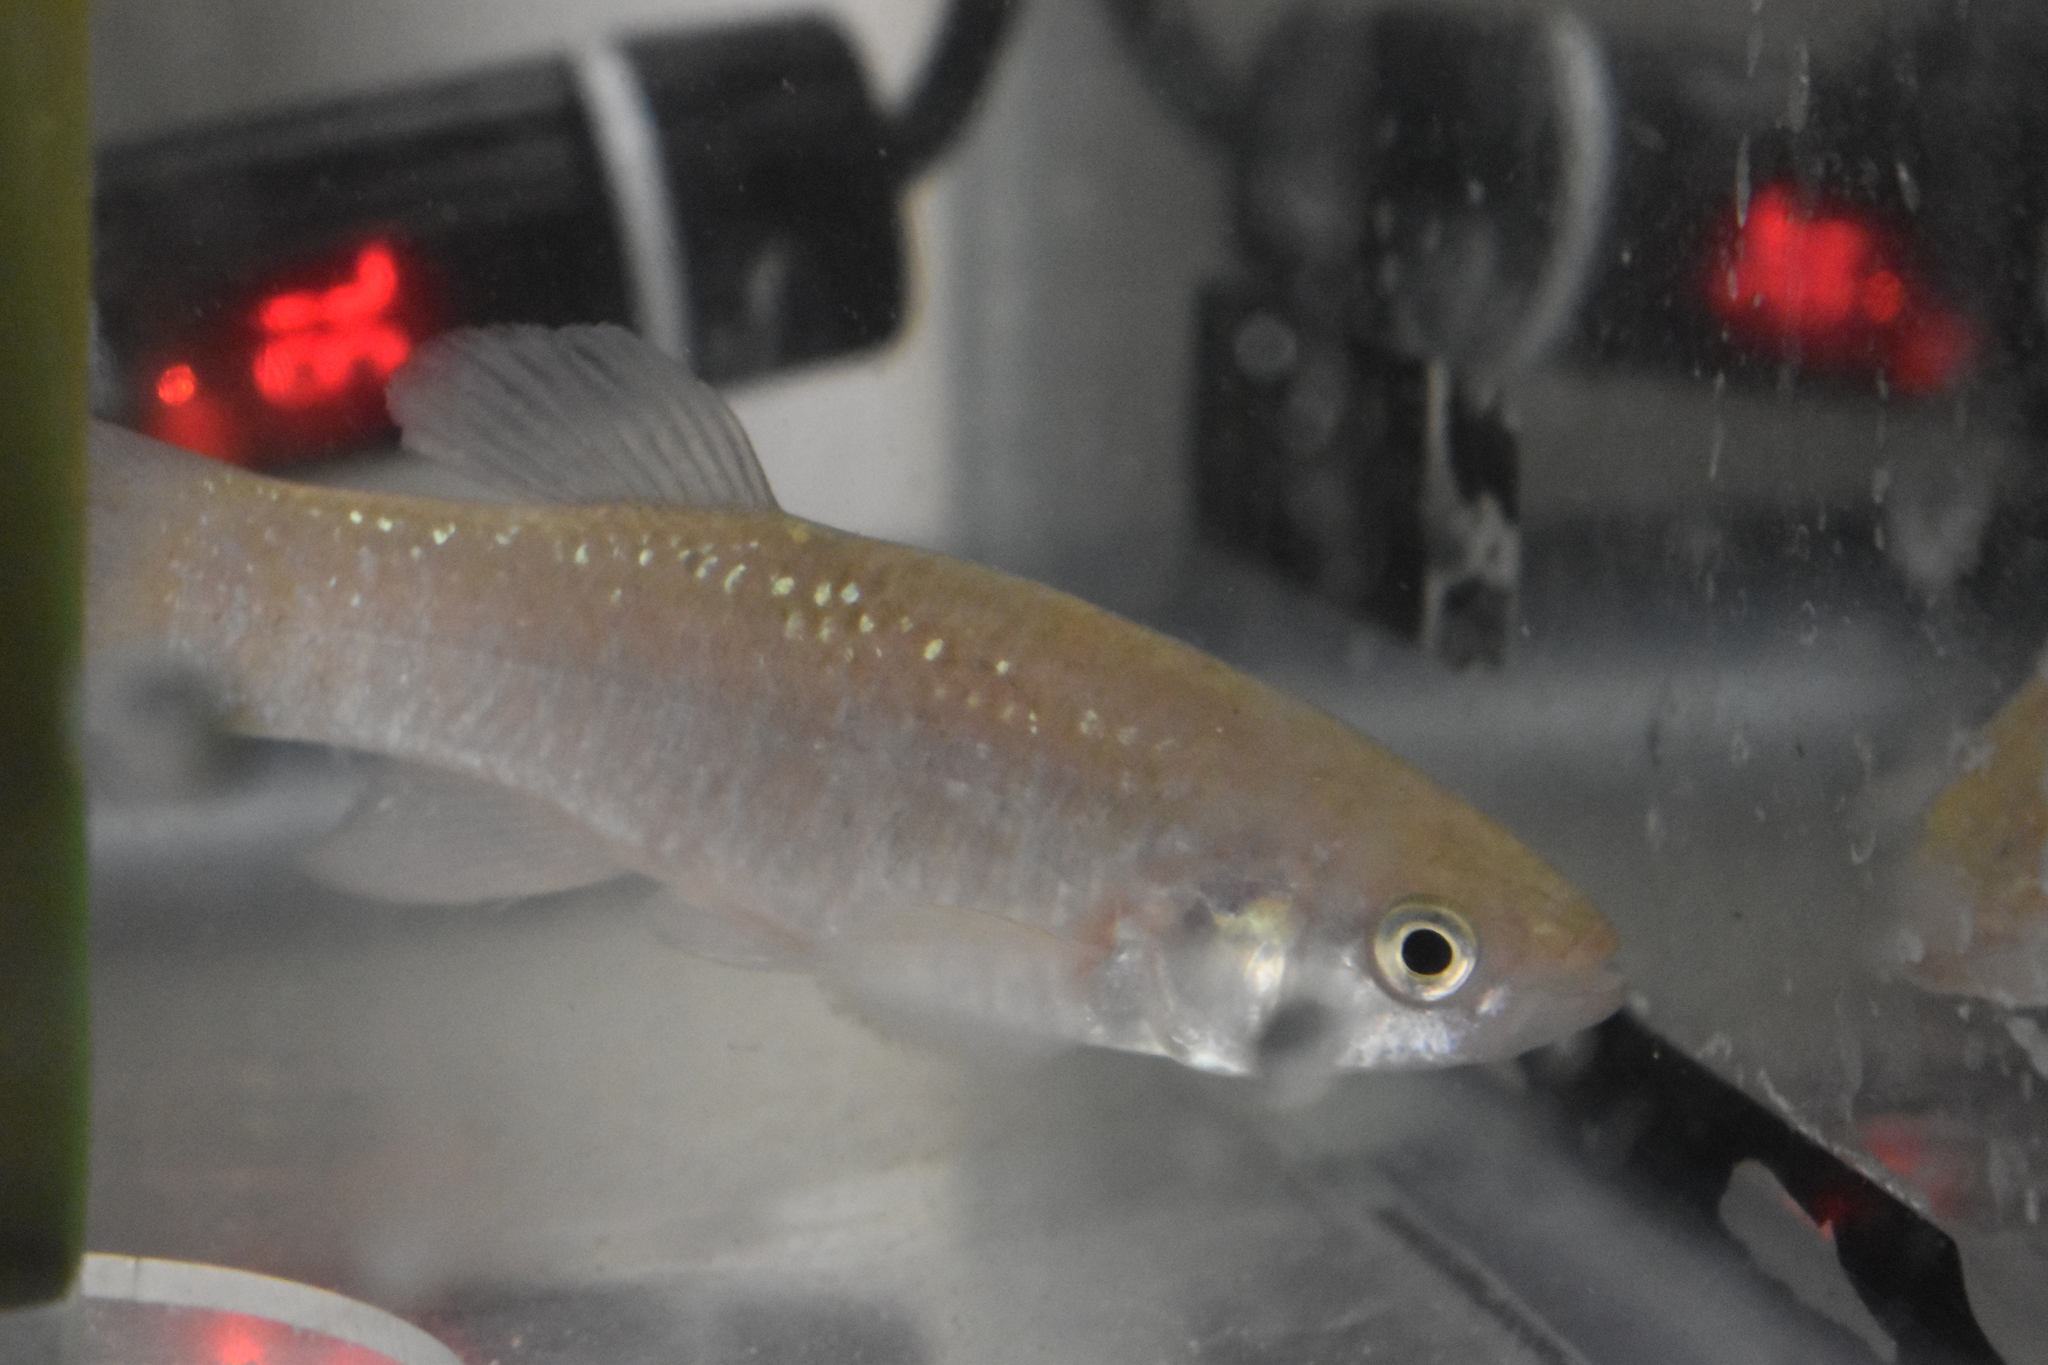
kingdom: Animalia
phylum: Chordata
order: Cyprinodontiformes
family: Fundulidae
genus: Fundulus
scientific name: Fundulus grandis
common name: Gulf killifish
